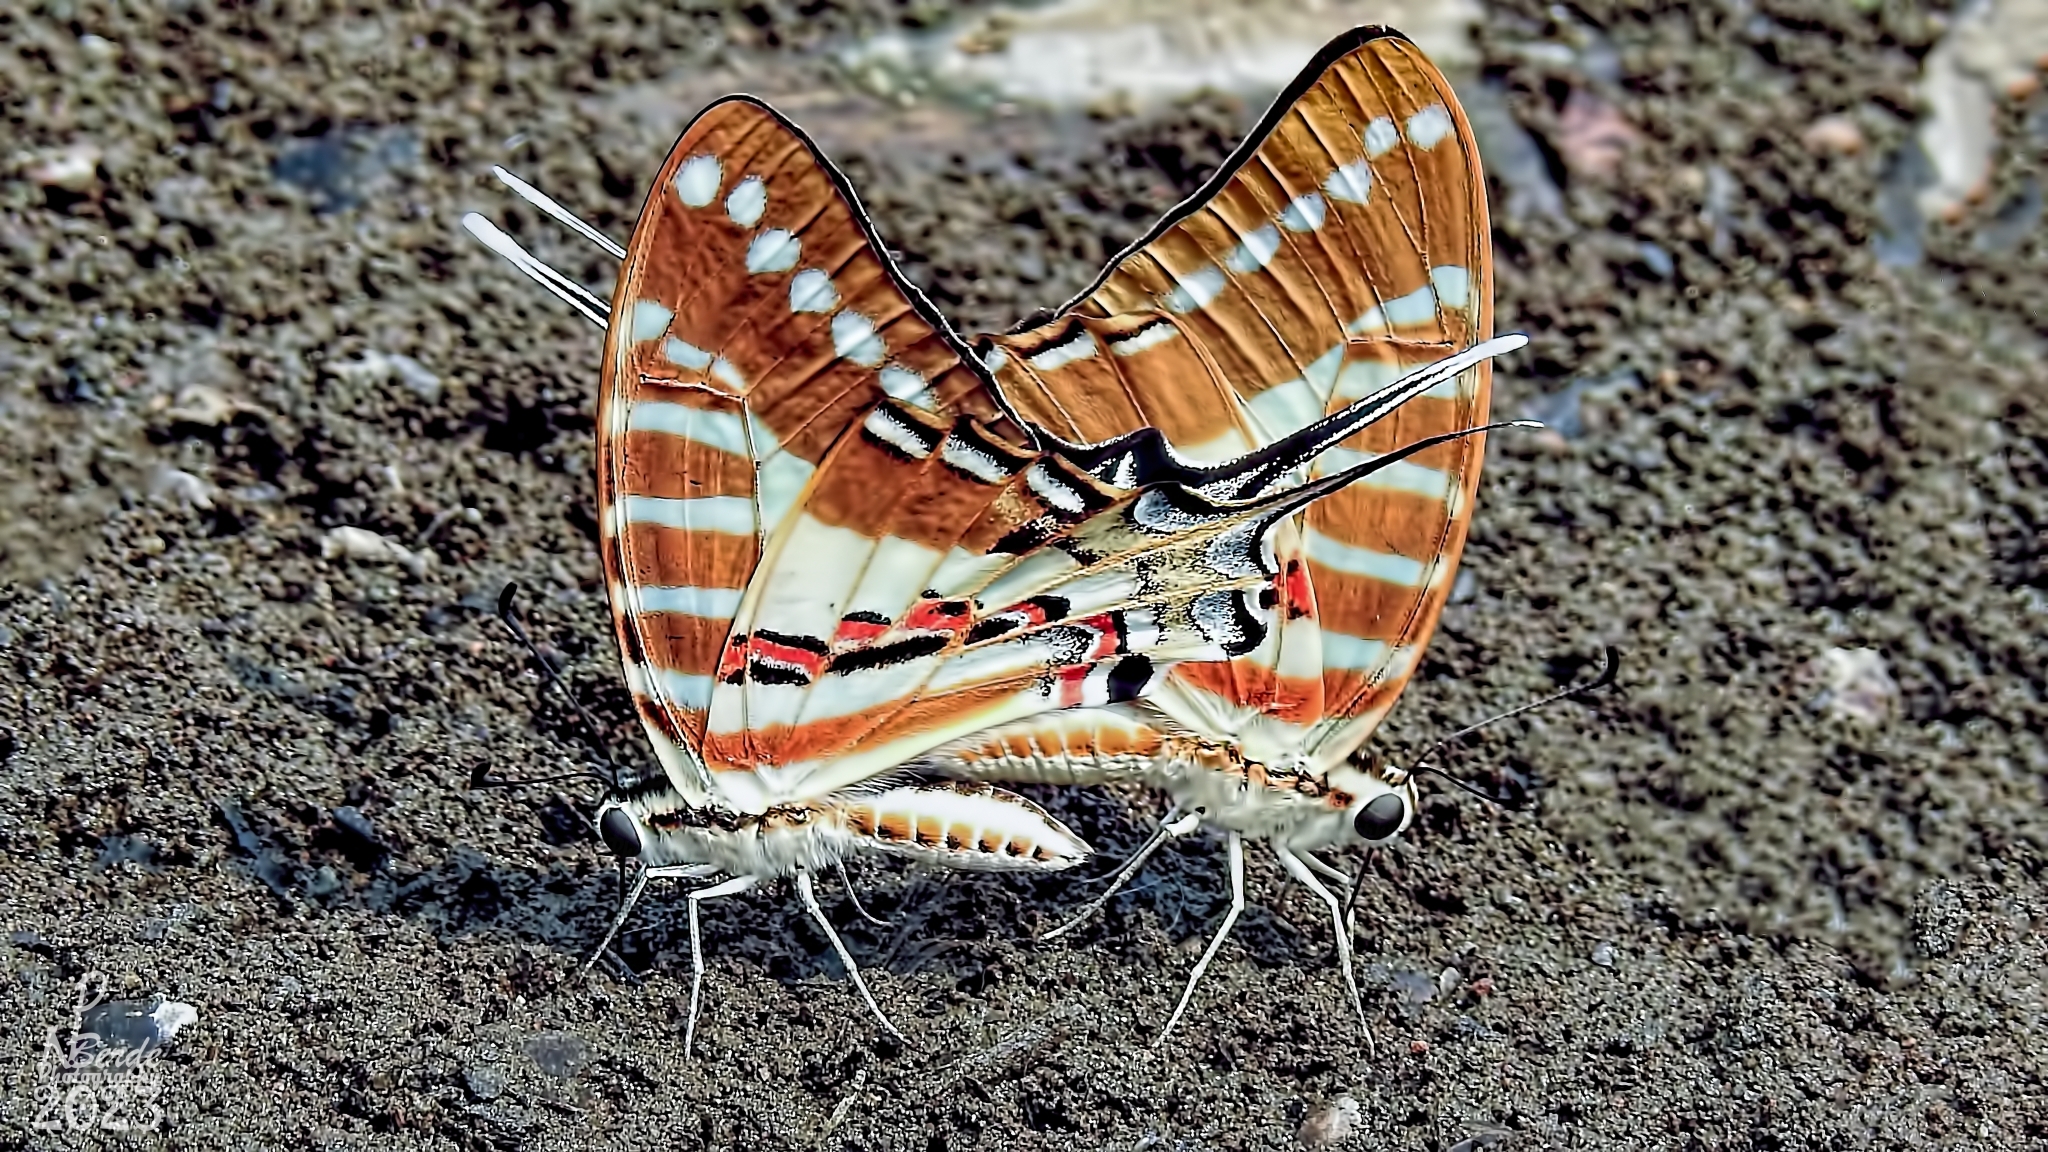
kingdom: Animalia
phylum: Arthropoda
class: Insecta
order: Lepidoptera
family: Papilionidae
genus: Graphium
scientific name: Graphium nomius
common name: Spot swordtail
